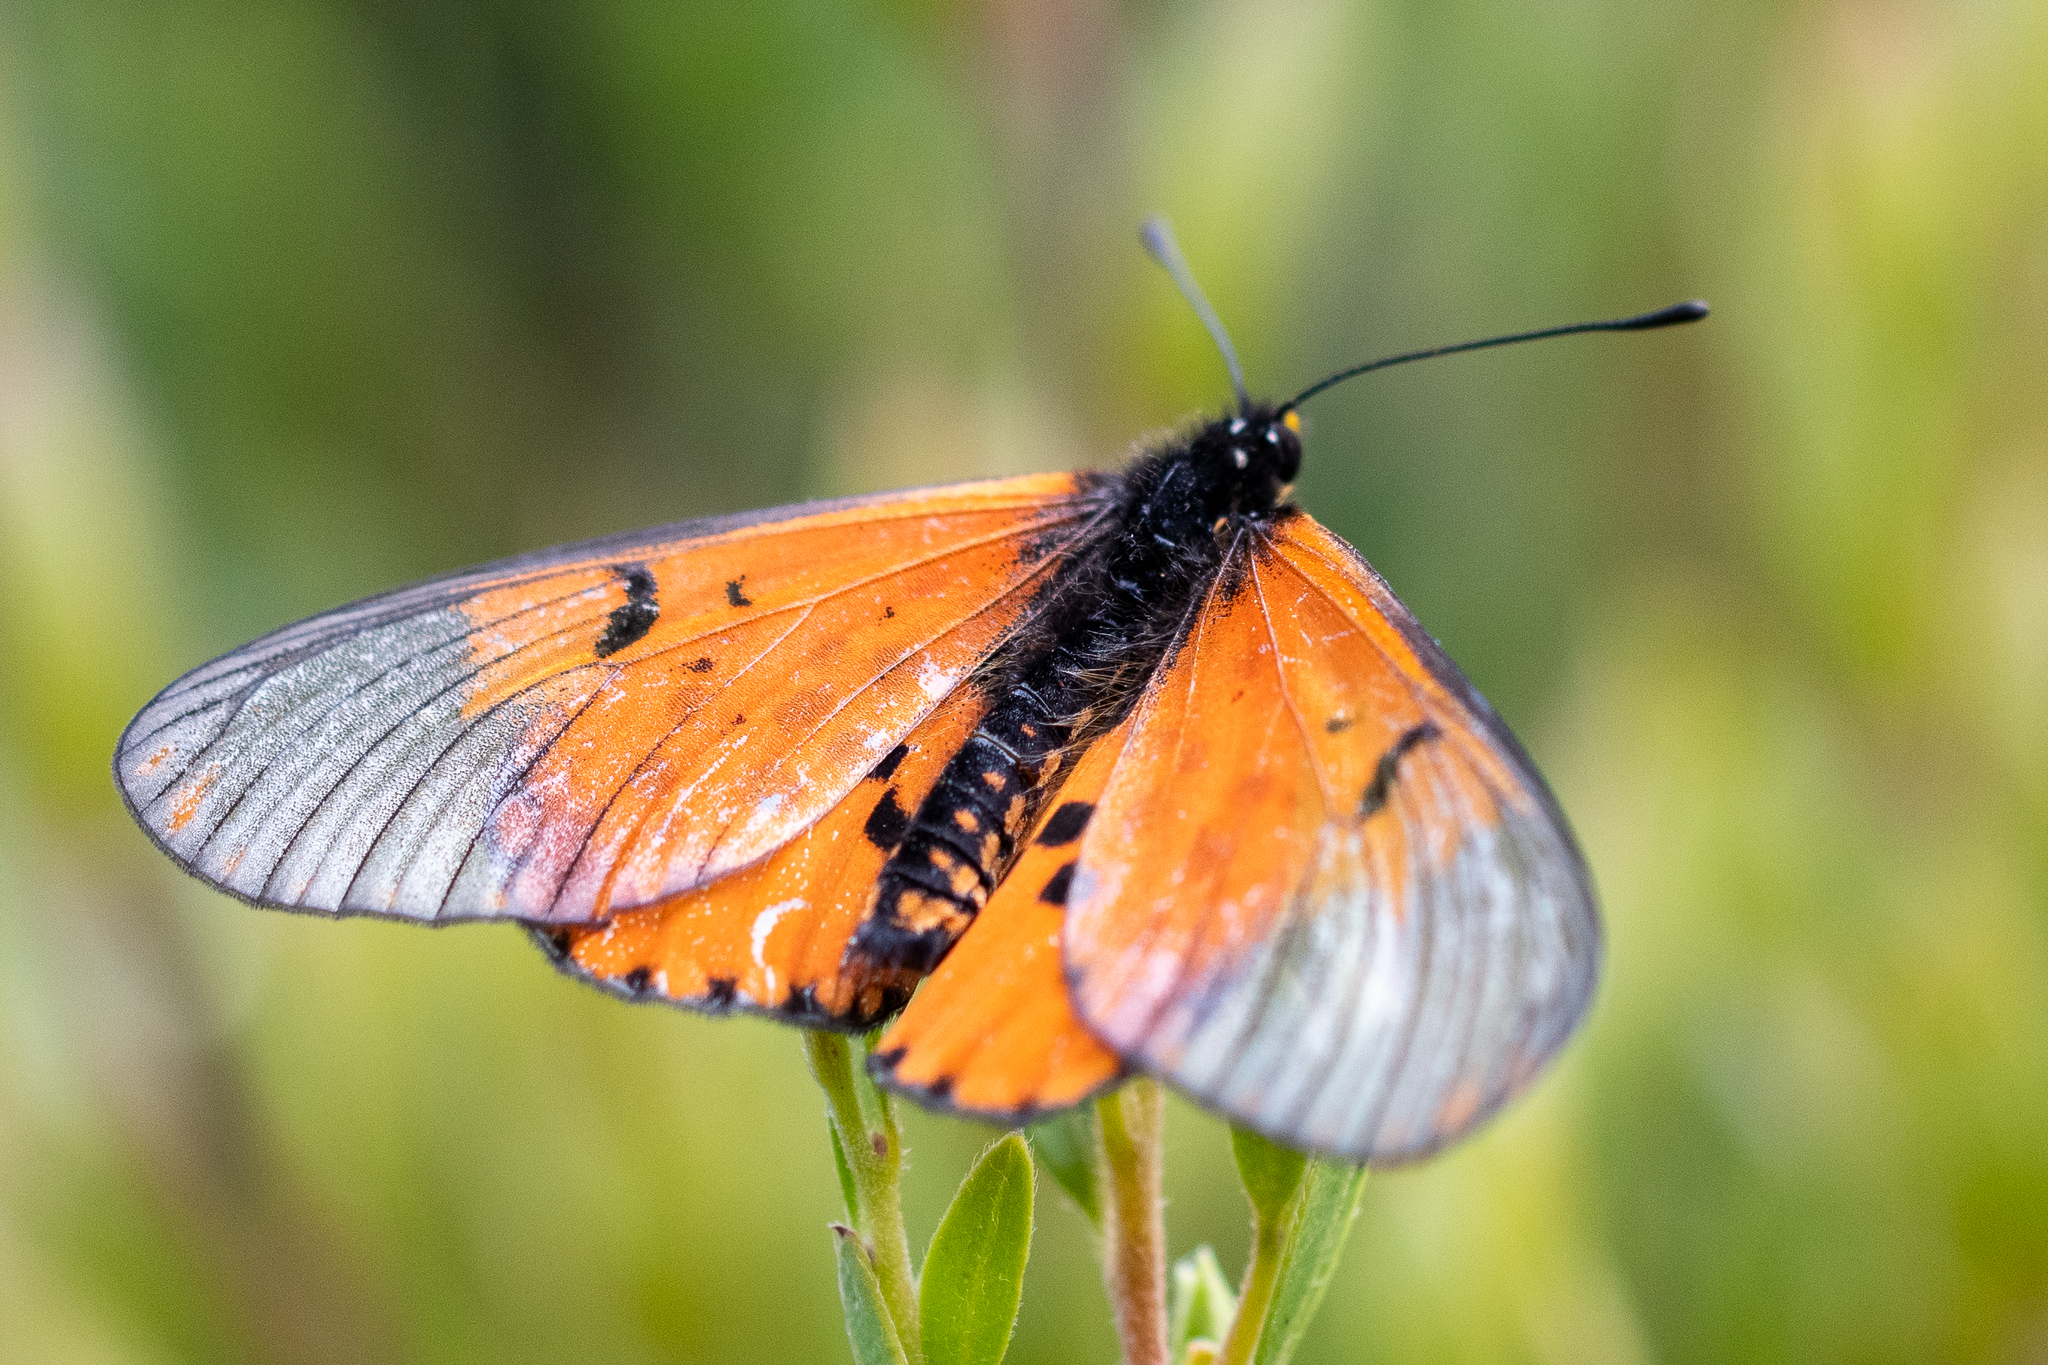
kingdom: Animalia
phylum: Arthropoda
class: Insecta
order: Lepidoptera
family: Nymphalidae
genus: Acraea
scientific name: Acraea horta
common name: Garden acraea
